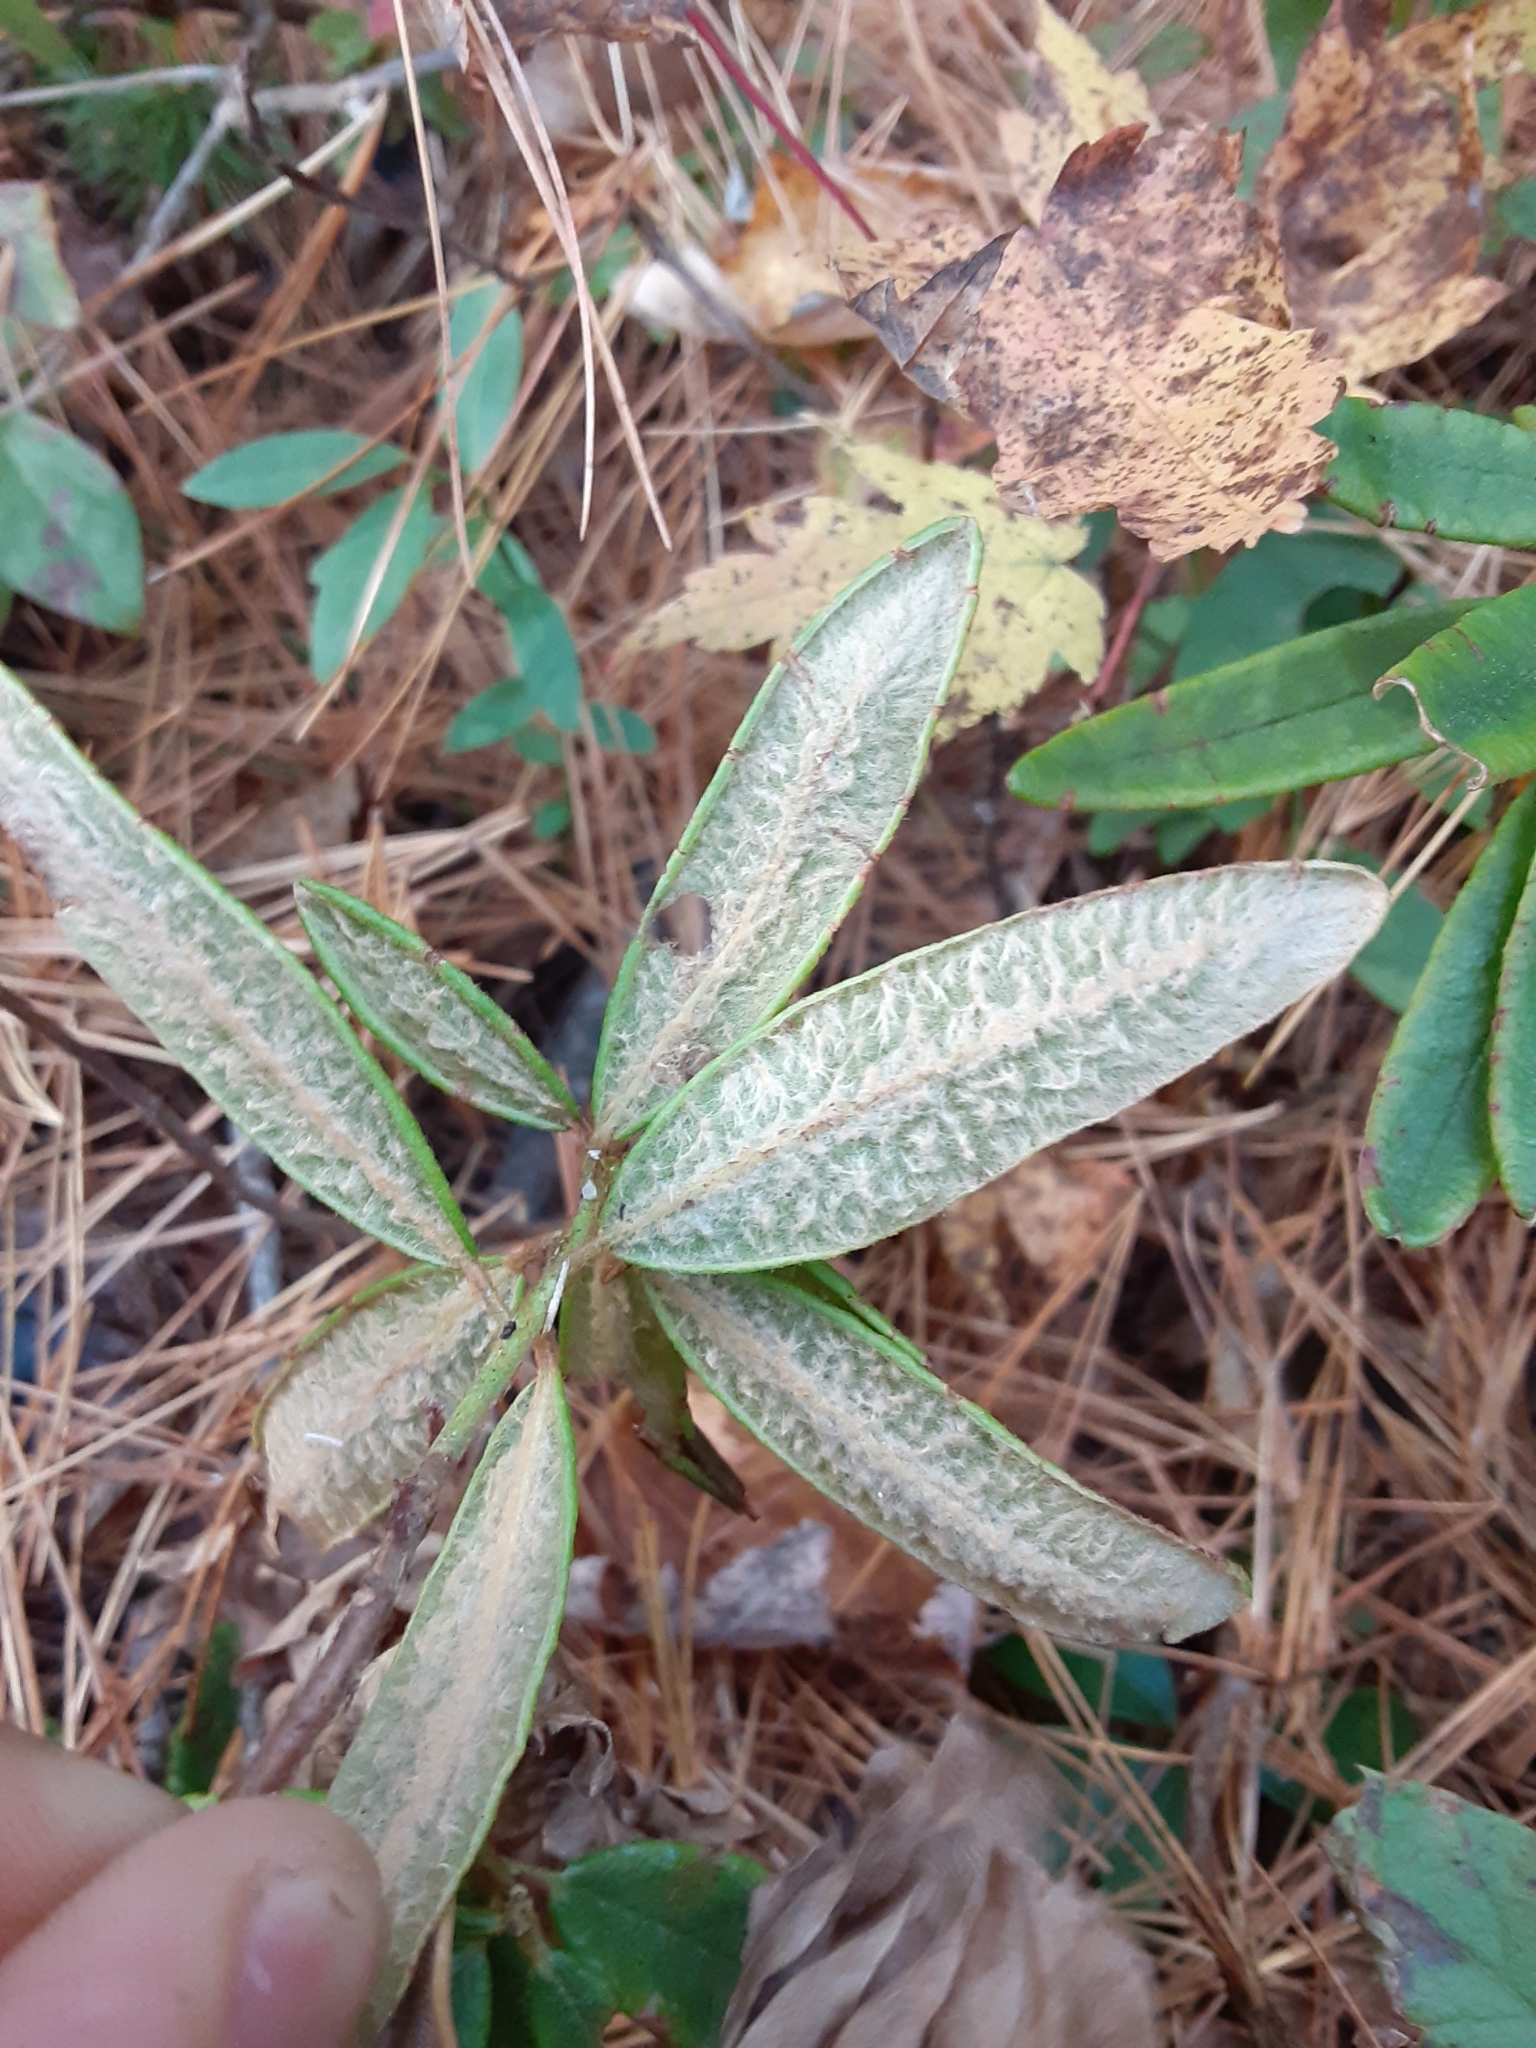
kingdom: Plantae
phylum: Tracheophyta
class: Magnoliopsida
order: Ericales
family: Ericaceae
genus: Rhododendron
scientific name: Rhododendron groenlandicum
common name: Bog labrador tea
